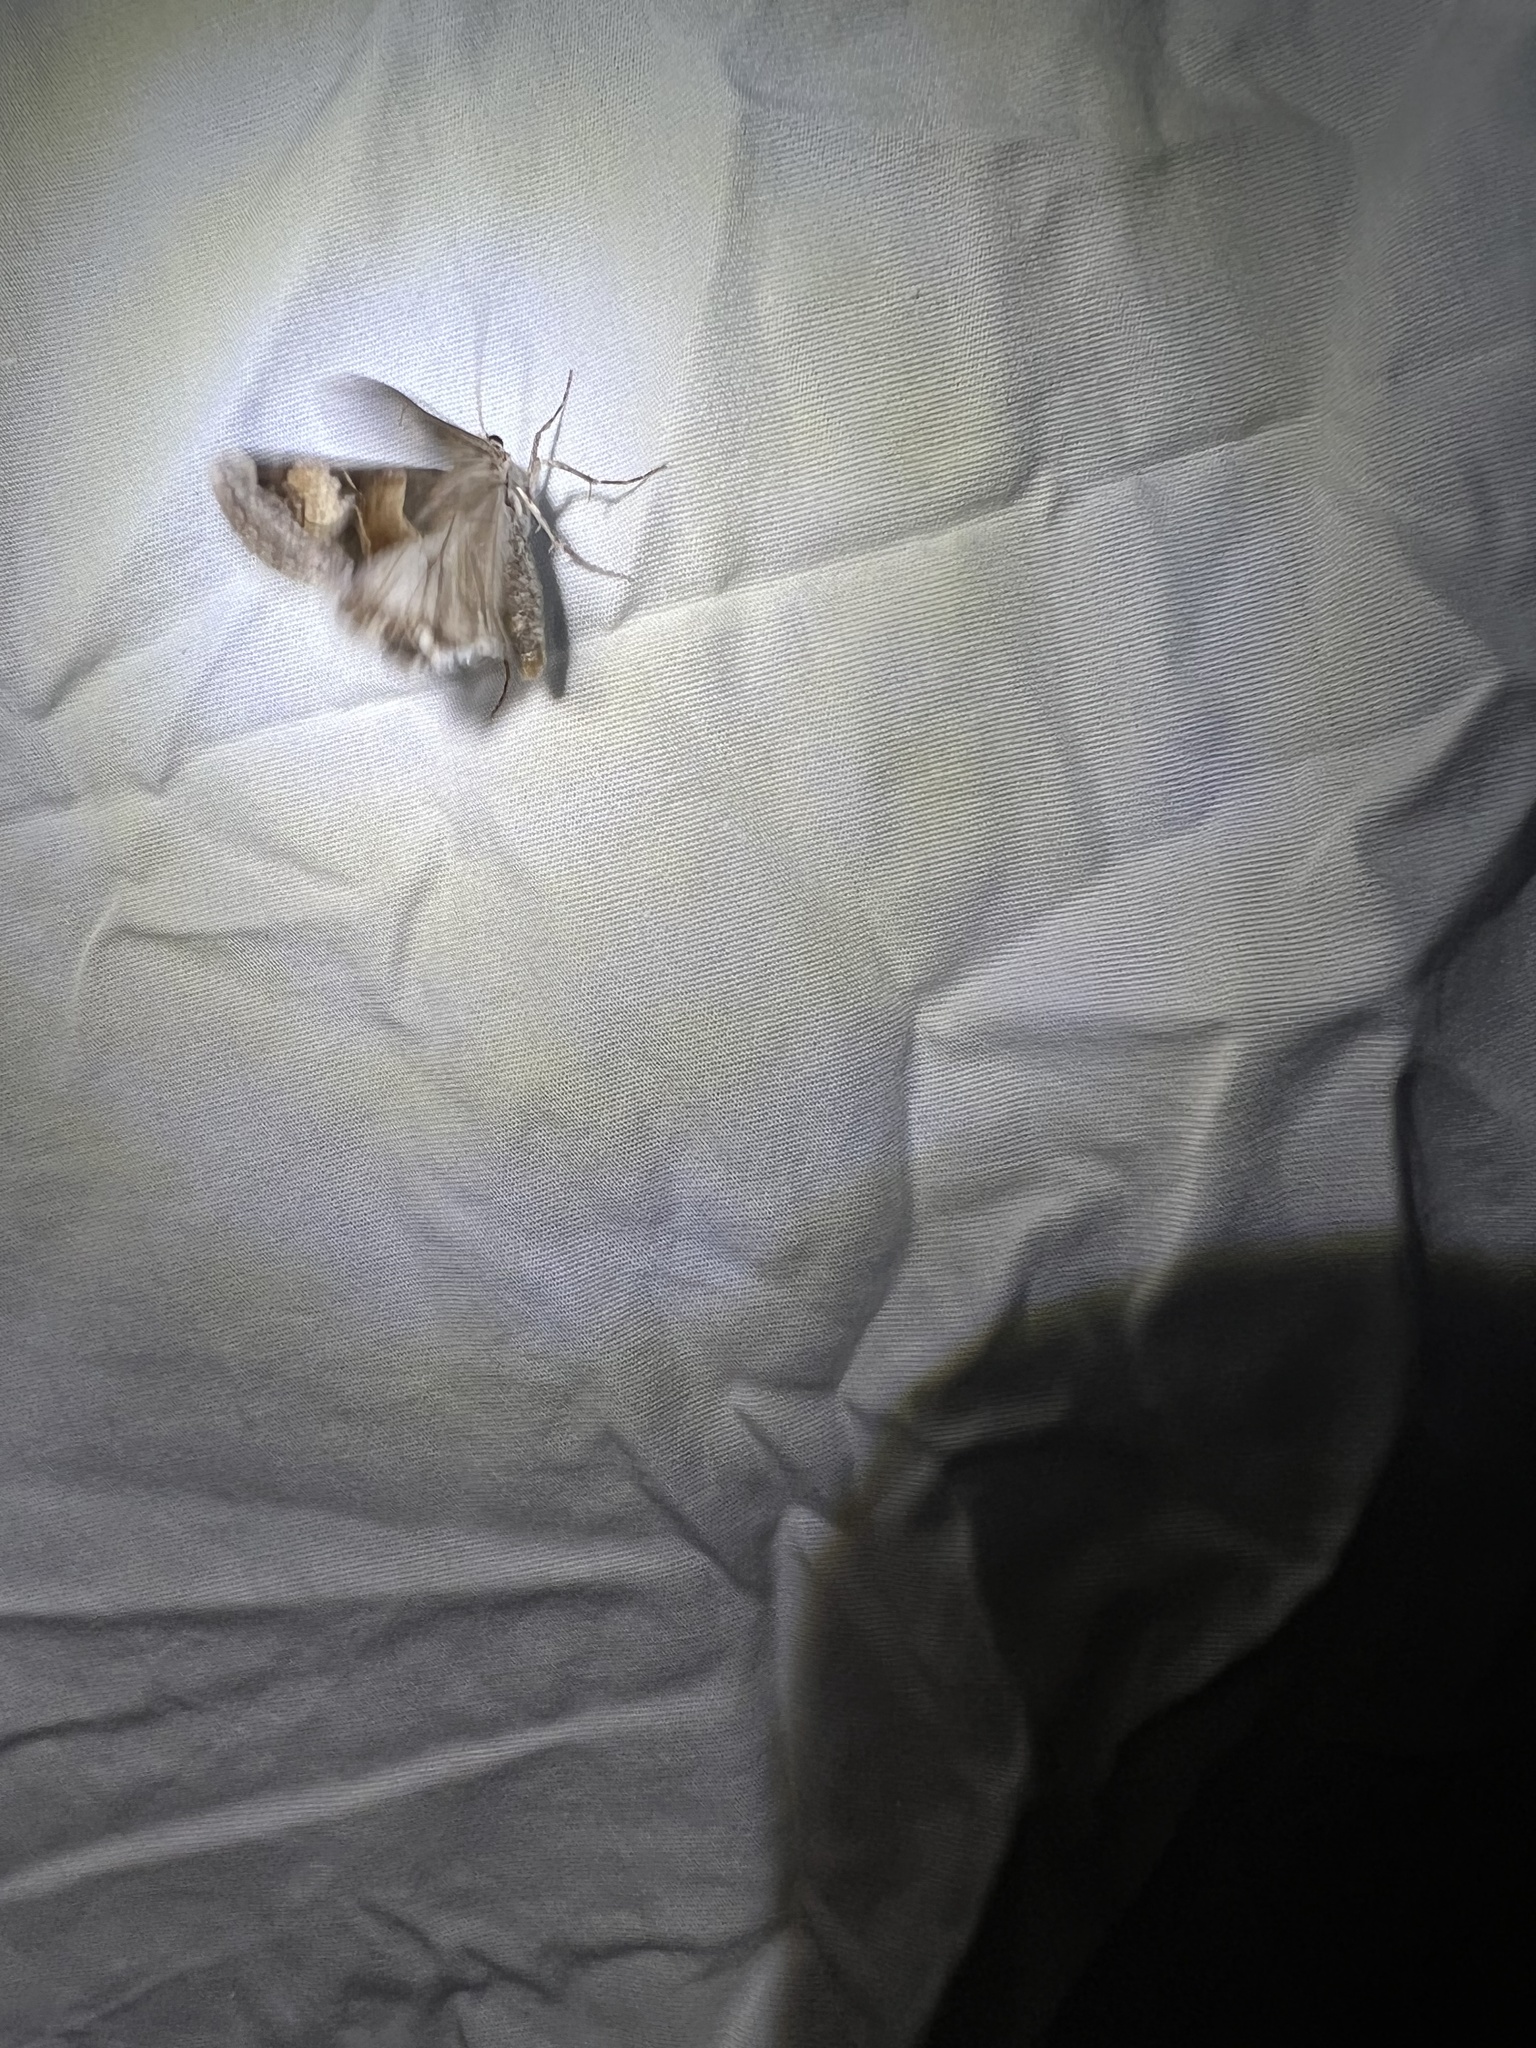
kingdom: Animalia
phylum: Arthropoda
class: Insecta
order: Lepidoptera
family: Erebidae
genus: Drasteria
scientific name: Drasteria pallescens
